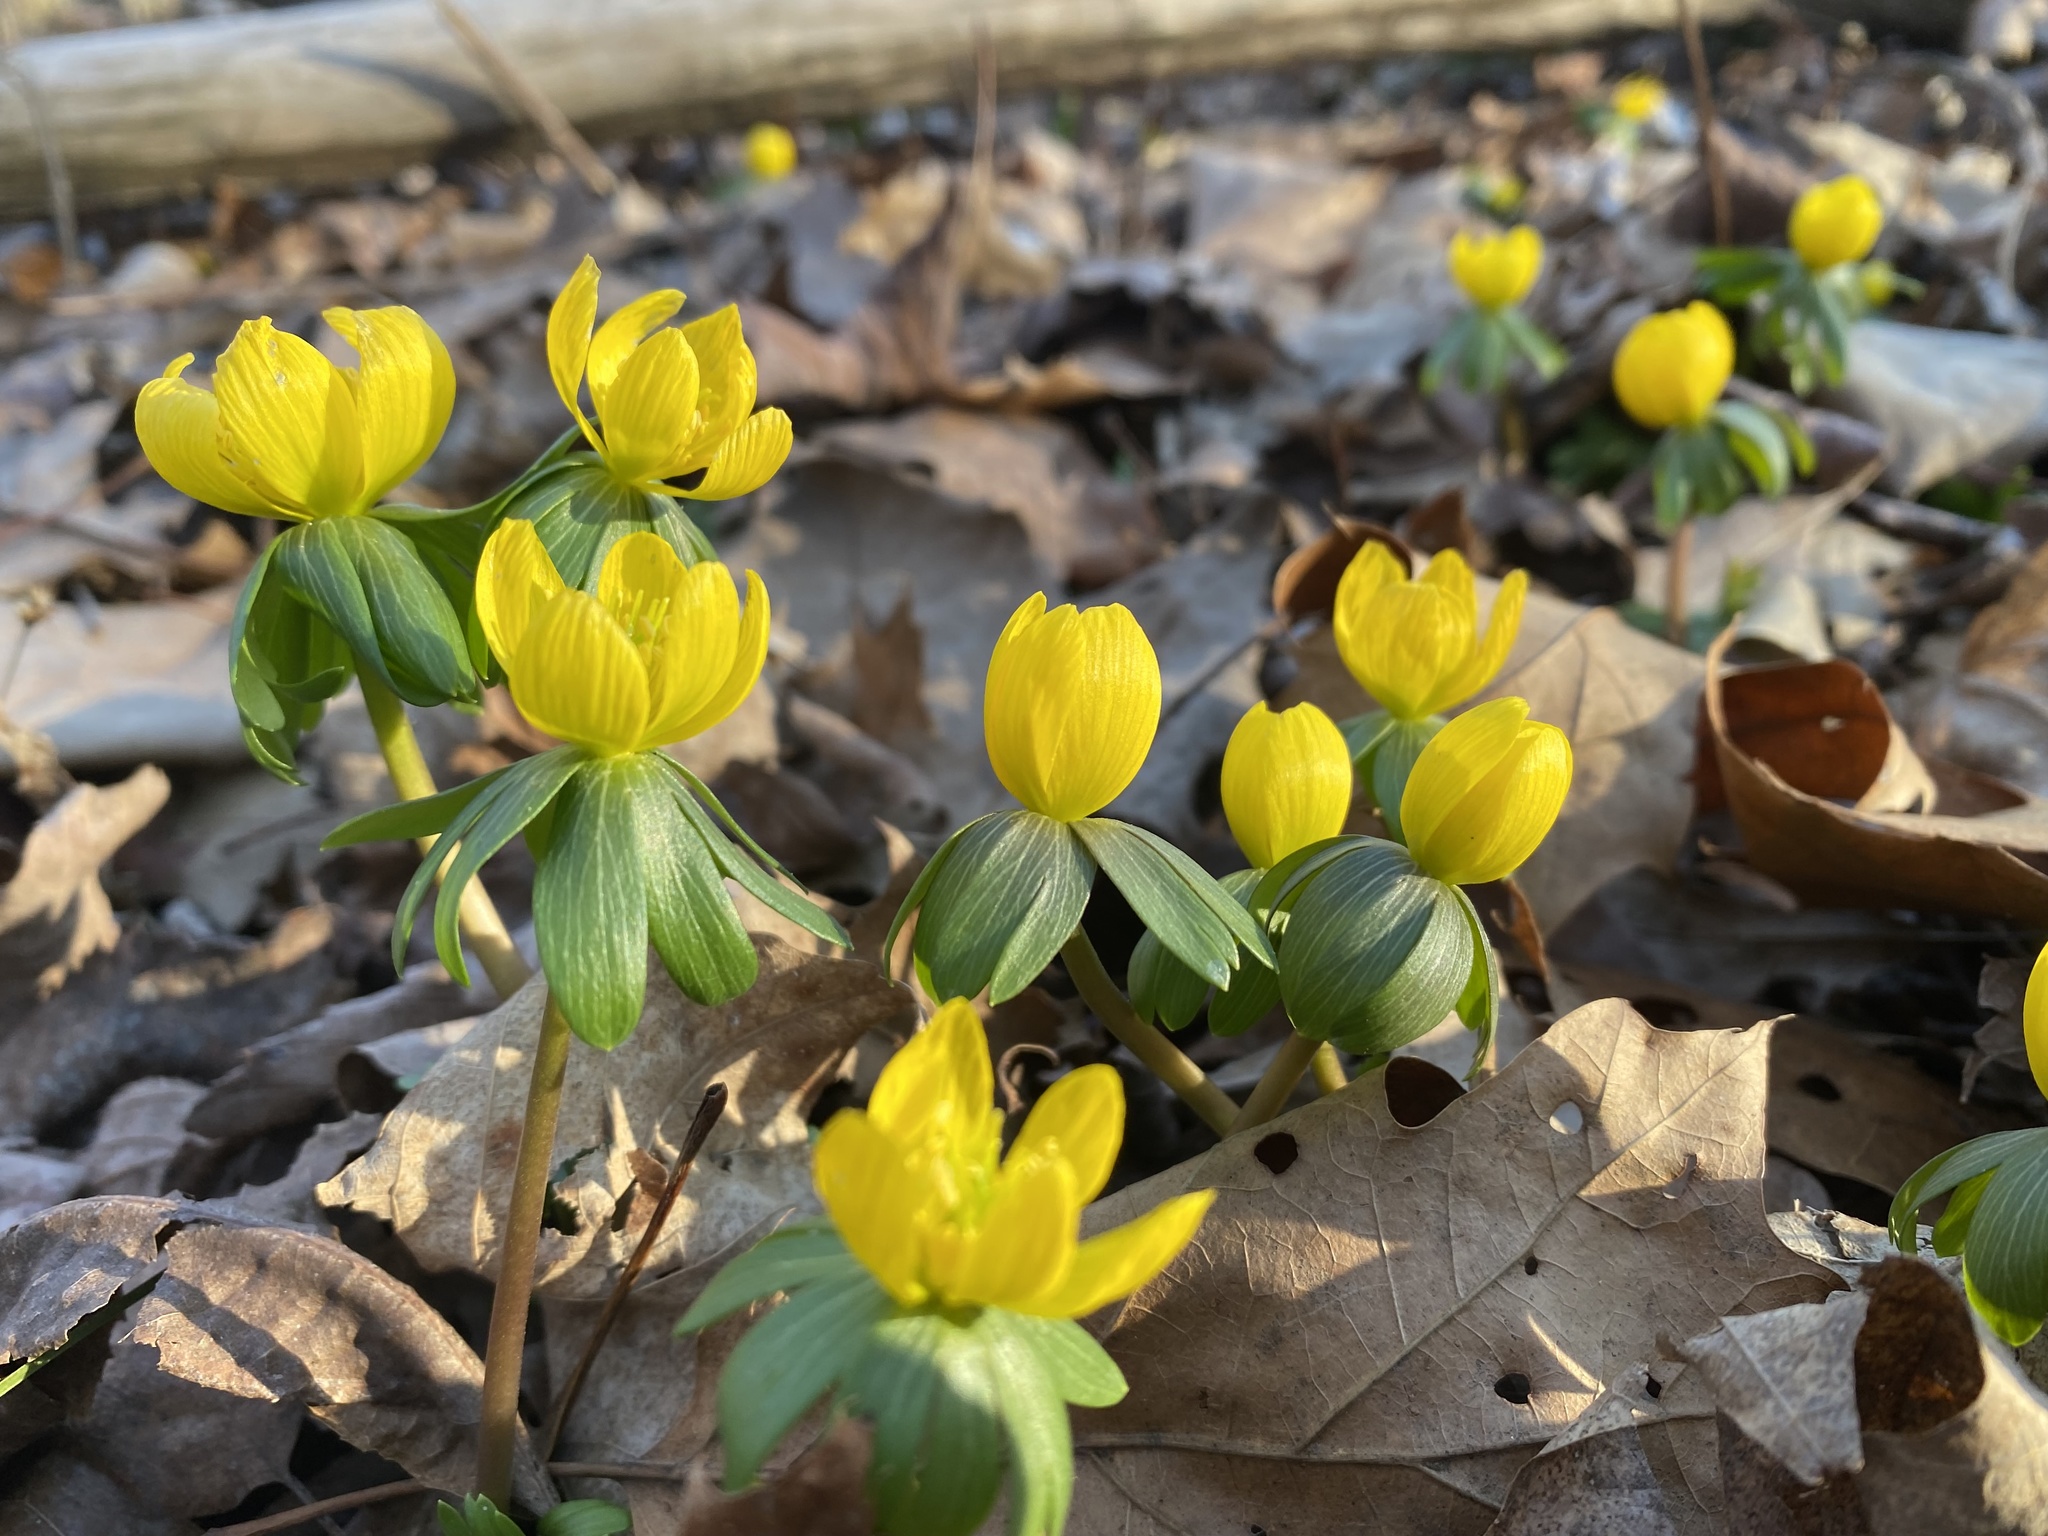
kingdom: Plantae
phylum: Tracheophyta
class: Magnoliopsida
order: Ranunculales
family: Ranunculaceae
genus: Eranthis
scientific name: Eranthis hyemalis
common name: Winter aconite
